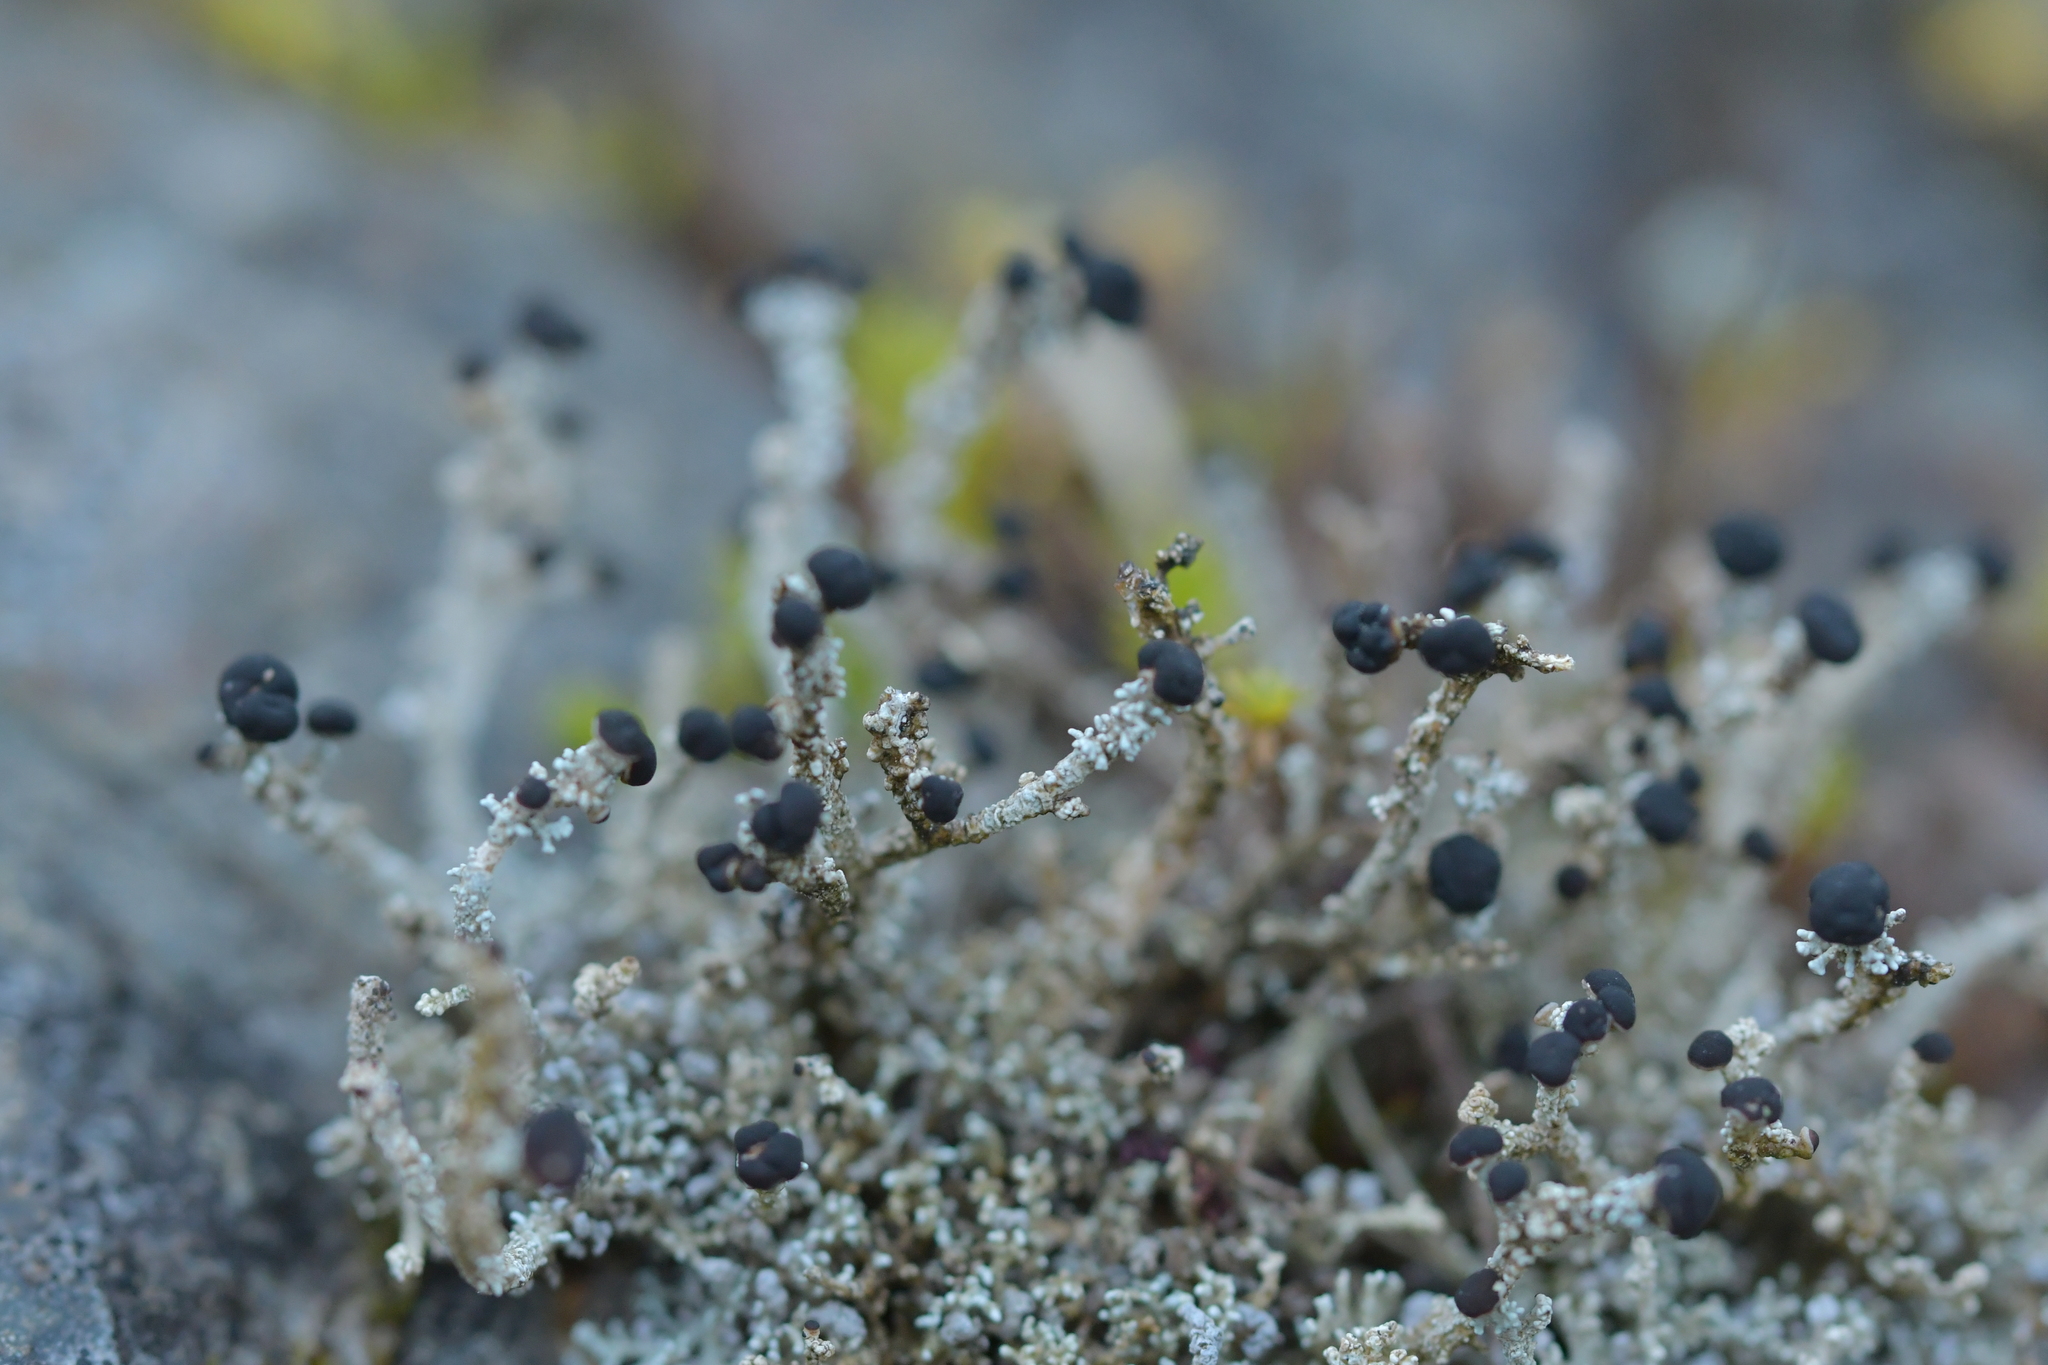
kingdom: Fungi
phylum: Ascomycota
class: Lecanoromycetes
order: Lecanorales
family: Stereocaulaceae
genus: Stereocaulon
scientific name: Stereocaulon ramulosum
